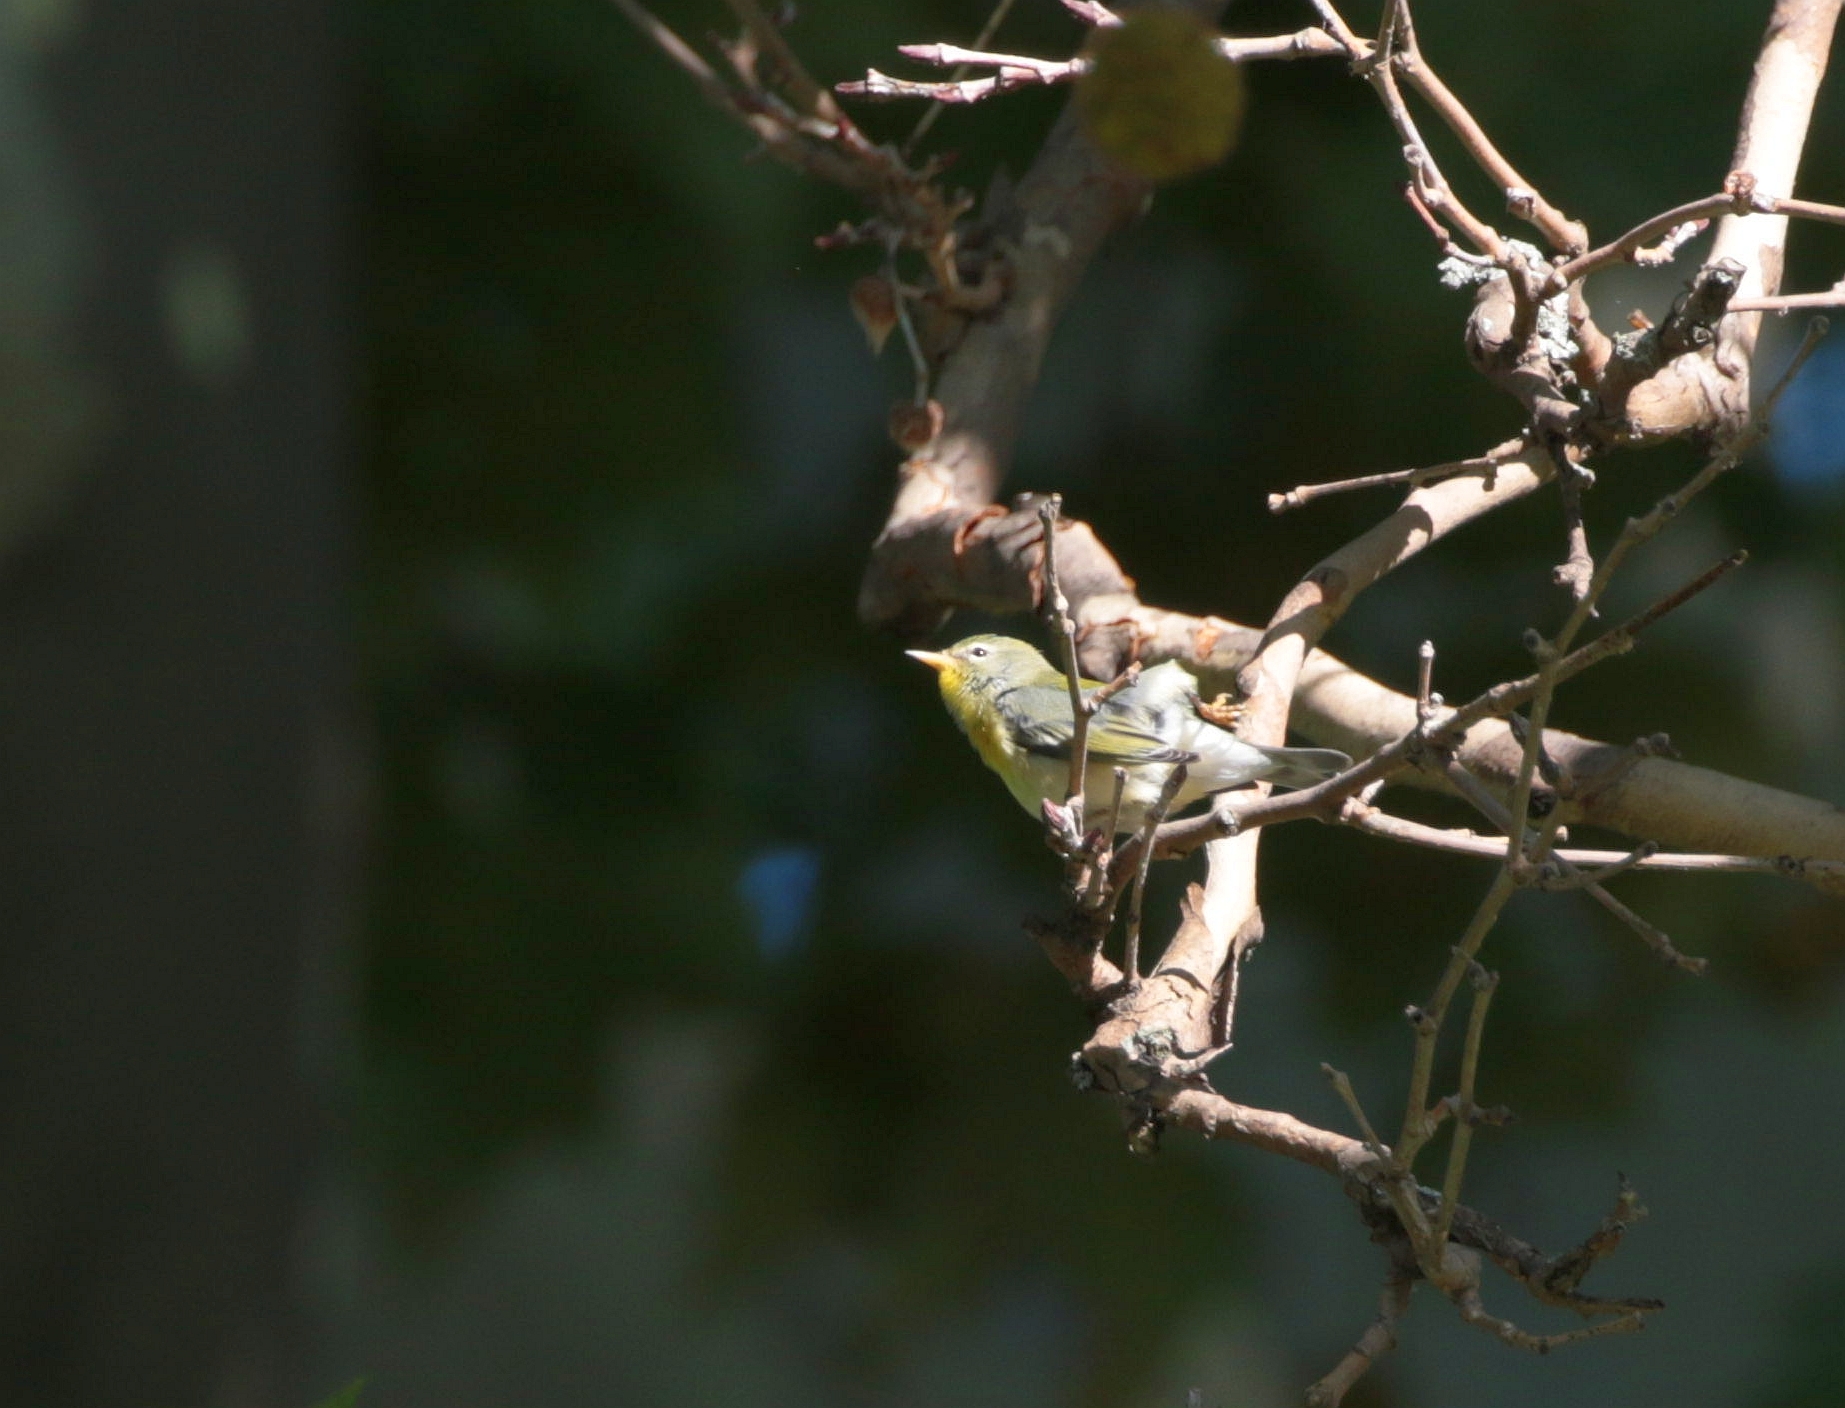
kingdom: Animalia
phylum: Chordata
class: Aves
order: Passeriformes
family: Parulidae
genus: Setophaga
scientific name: Setophaga americana
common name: Northern parula
